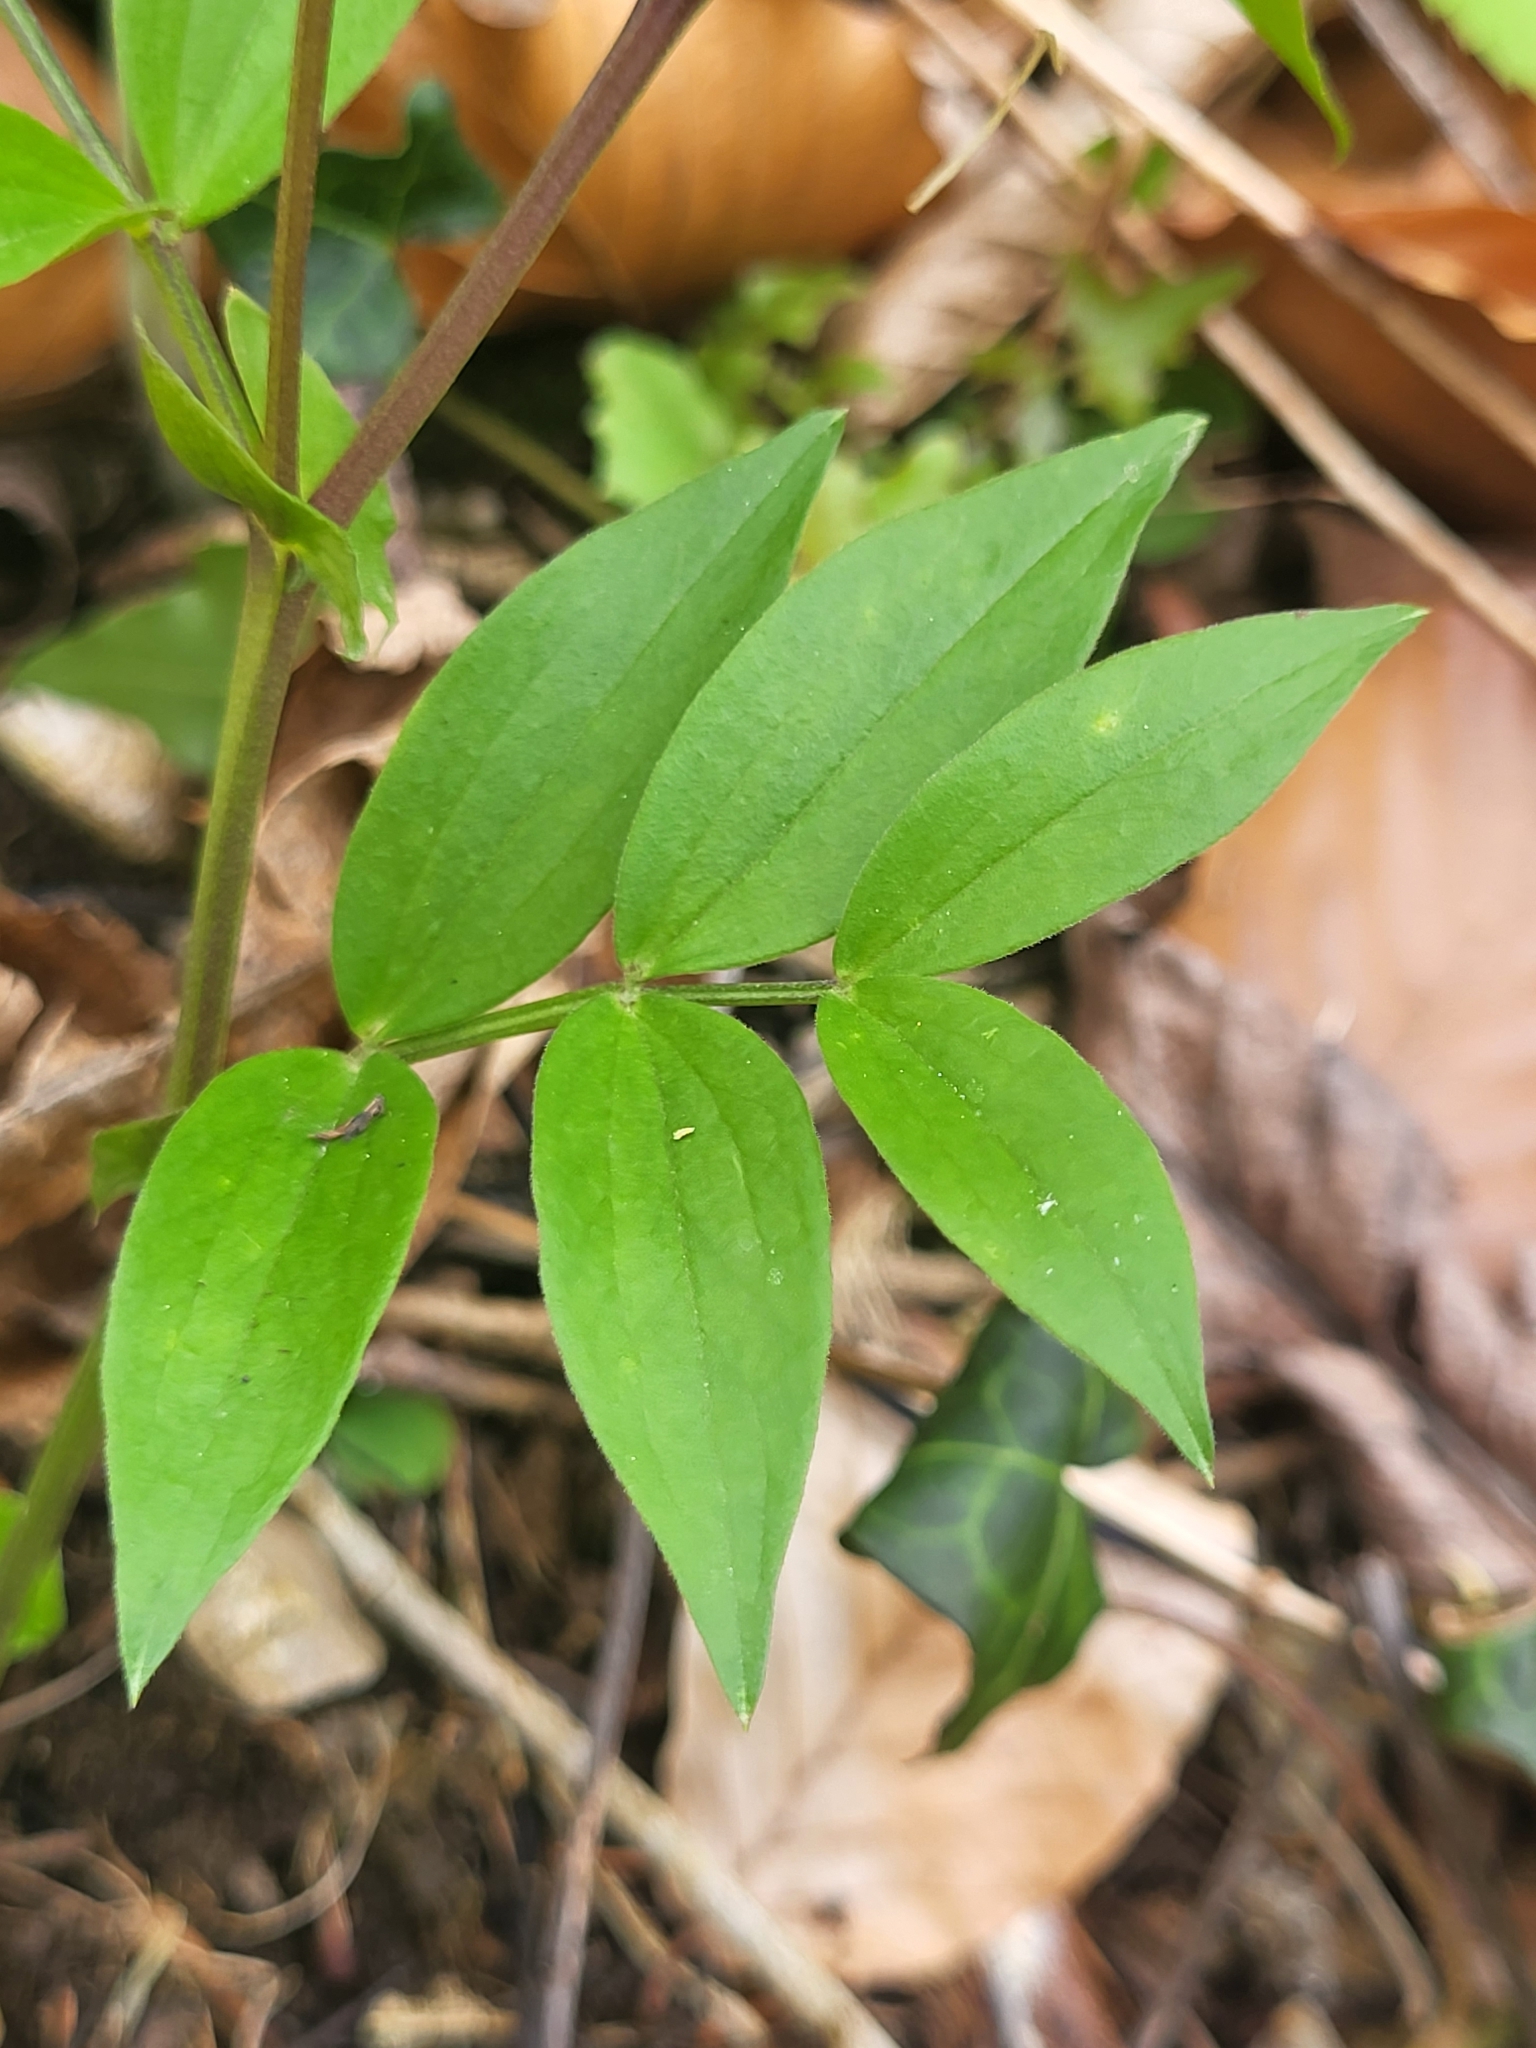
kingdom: Plantae
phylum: Tracheophyta
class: Magnoliopsida
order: Fabales
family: Fabaceae
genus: Lathyrus
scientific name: Lathyrus vernus
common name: Spring pea
